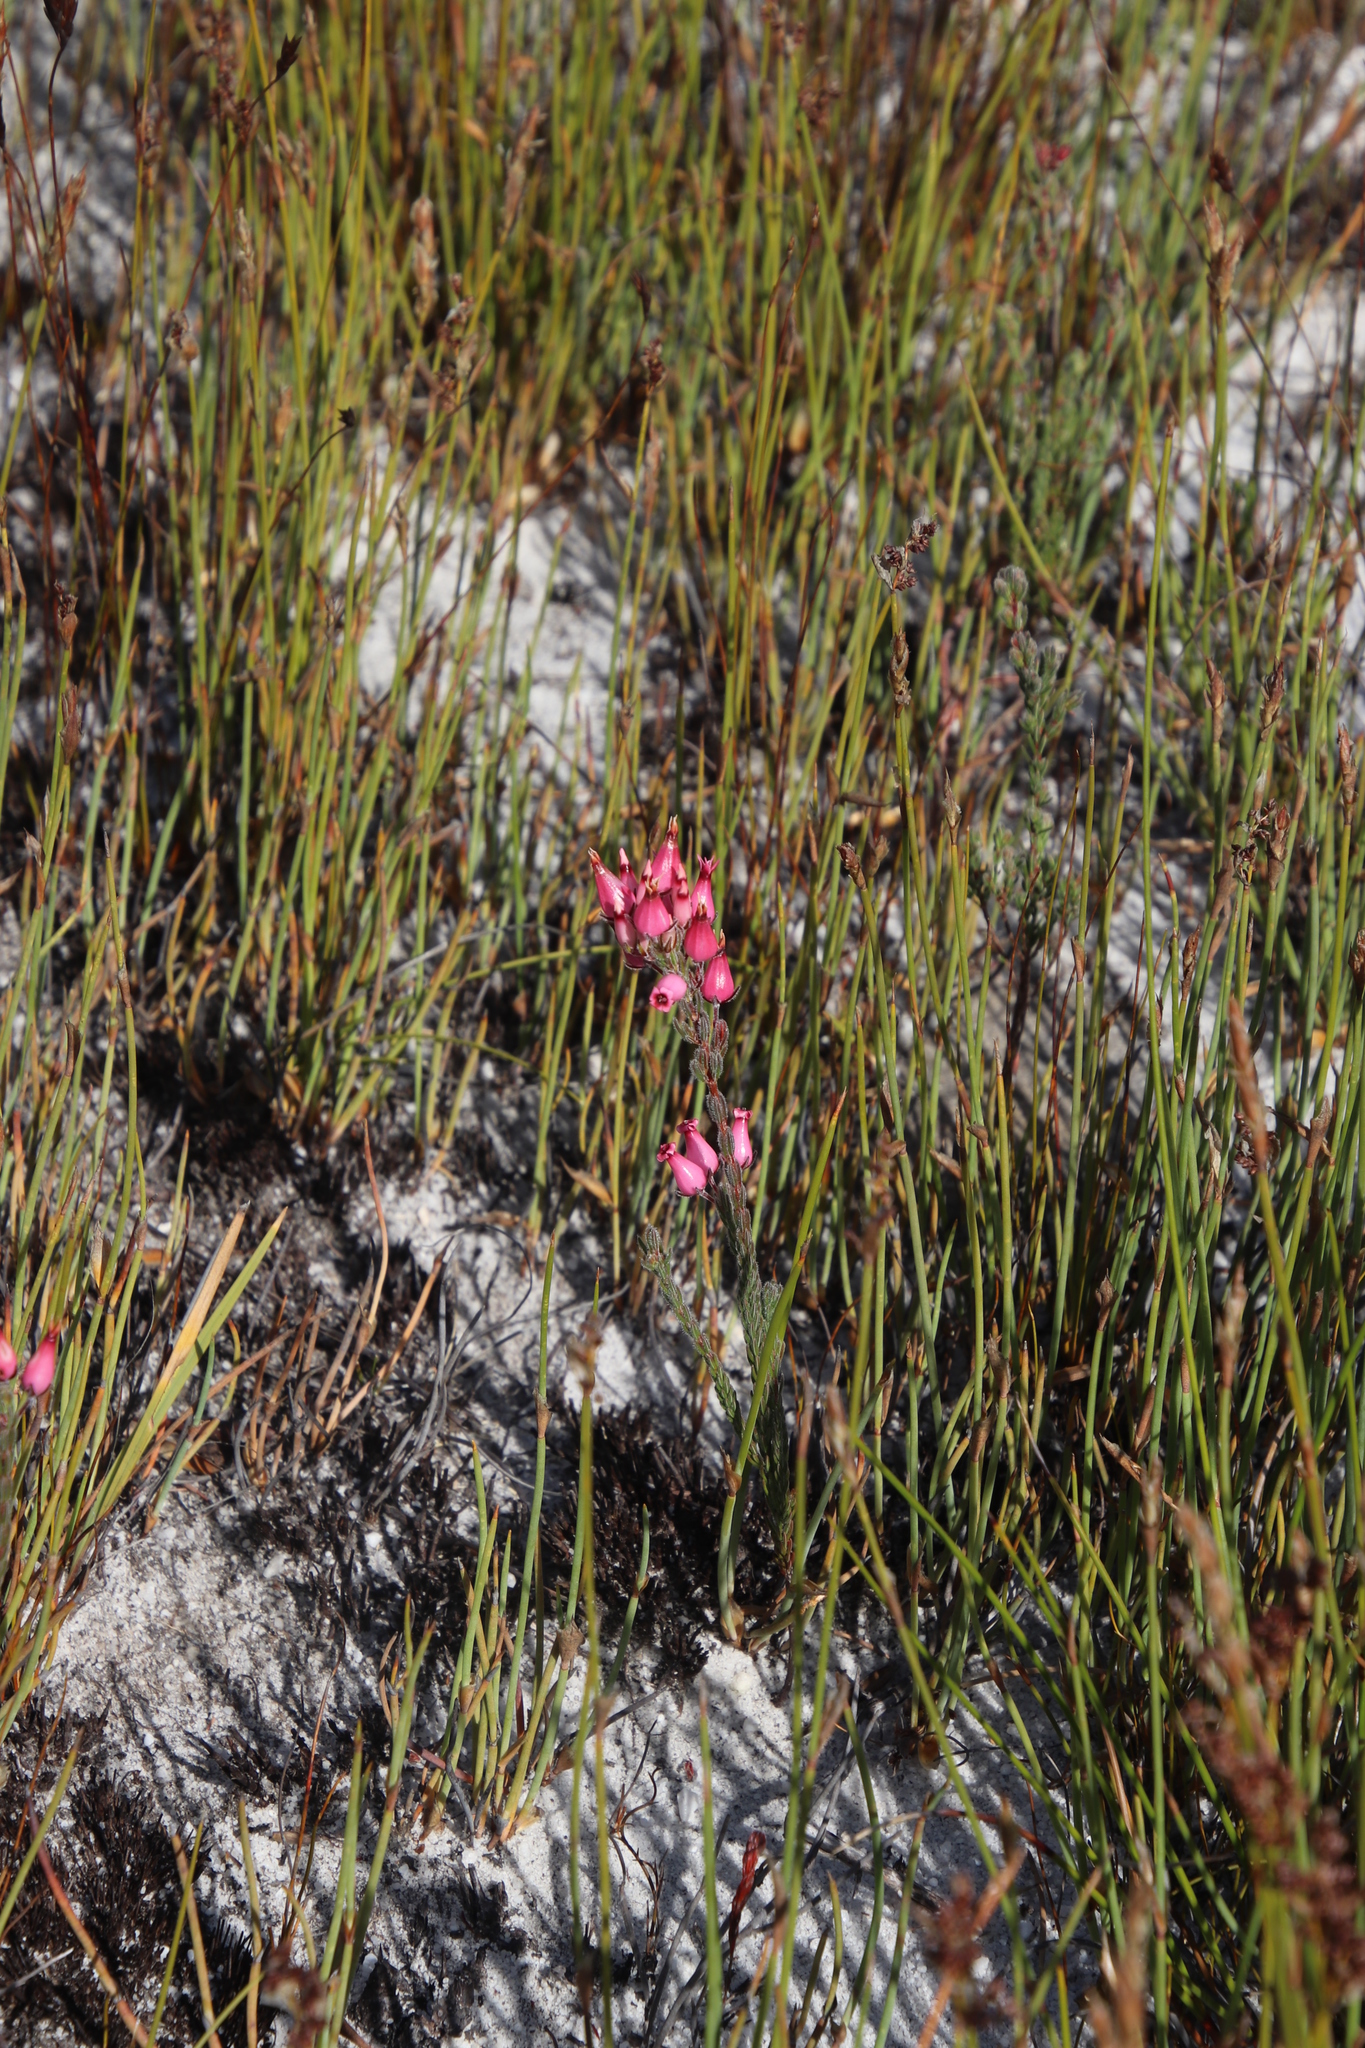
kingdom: Plantae
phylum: Tracheophyta
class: Magnoliopsida
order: Ericales
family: Ericaceae
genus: Erica
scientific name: Erica
